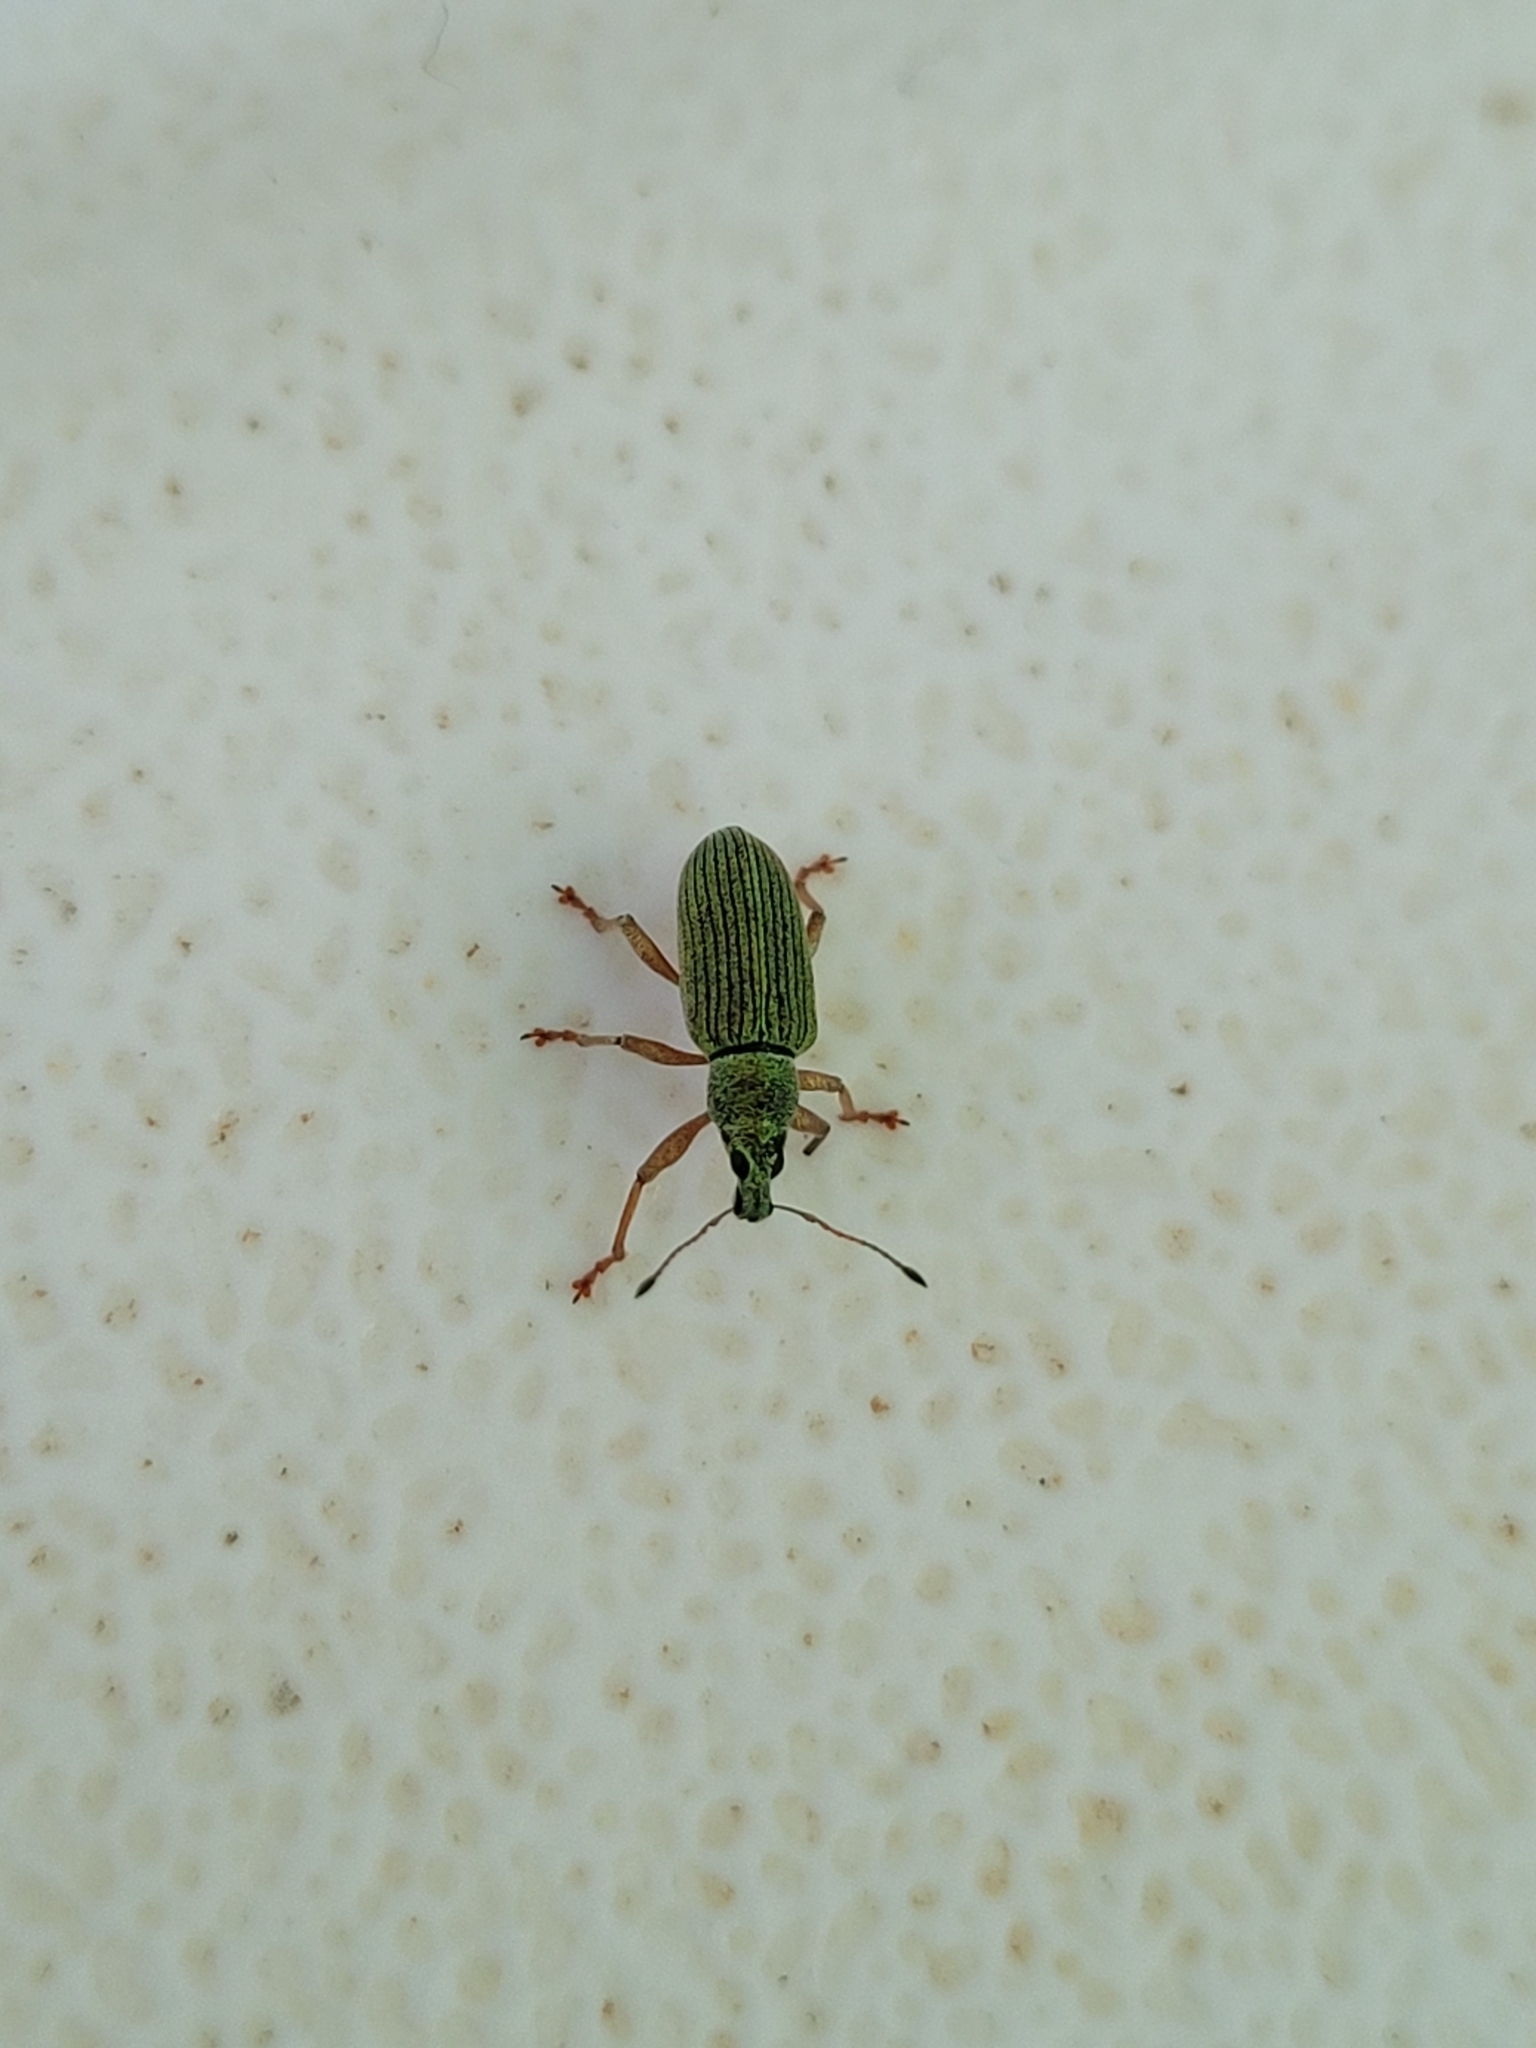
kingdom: Animalia
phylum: Arthropoda
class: Insecta
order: Coleoptera
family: Curculionidae
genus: Polydrusus
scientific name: Polydrusus formosus
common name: Weevil
